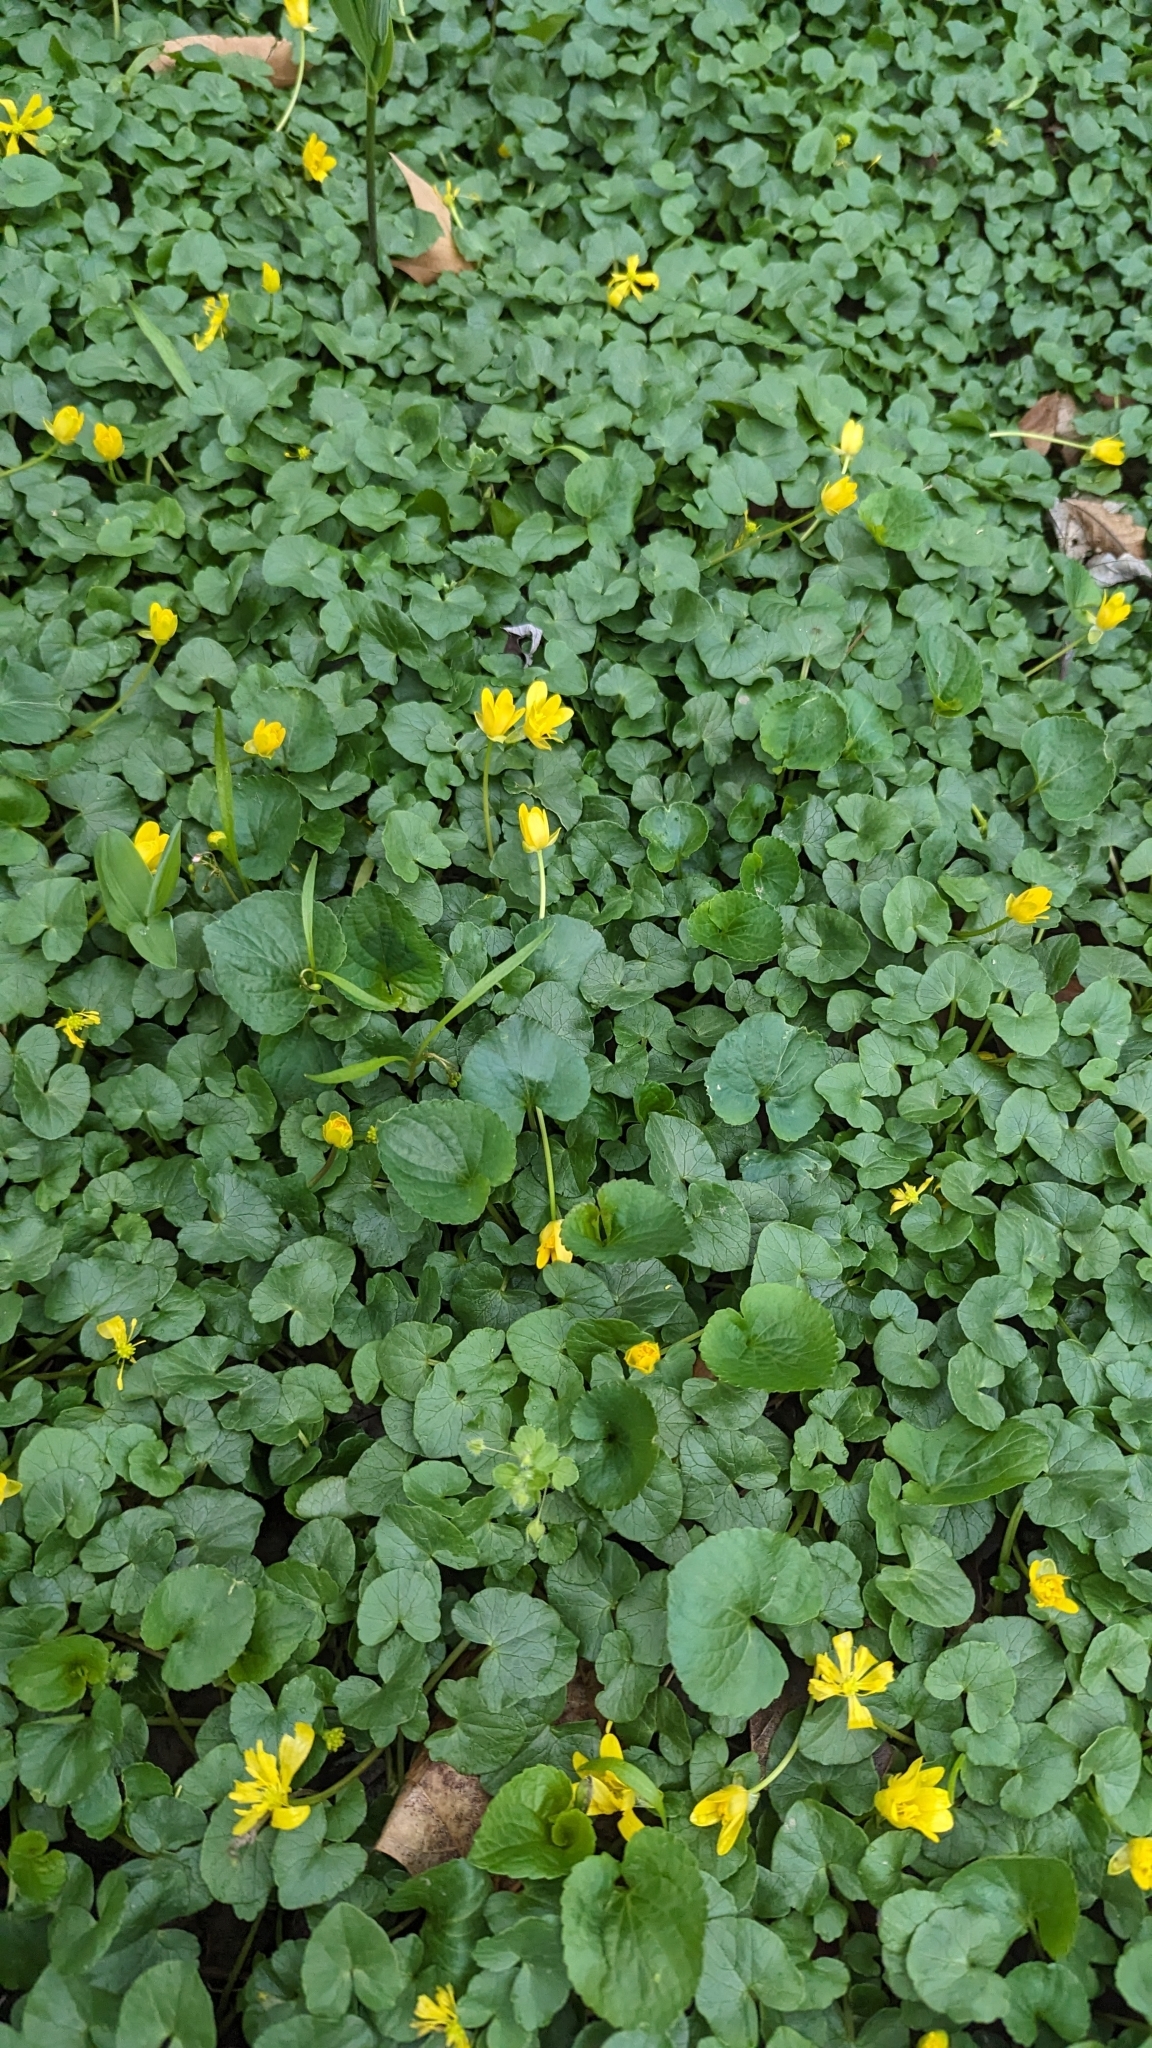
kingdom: Plantae
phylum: Tracheophyta
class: Magnoliopsida
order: Ranunculales
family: Ranunculaceae
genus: Ficaria
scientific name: Ficaria verna
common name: Lesser celandine
